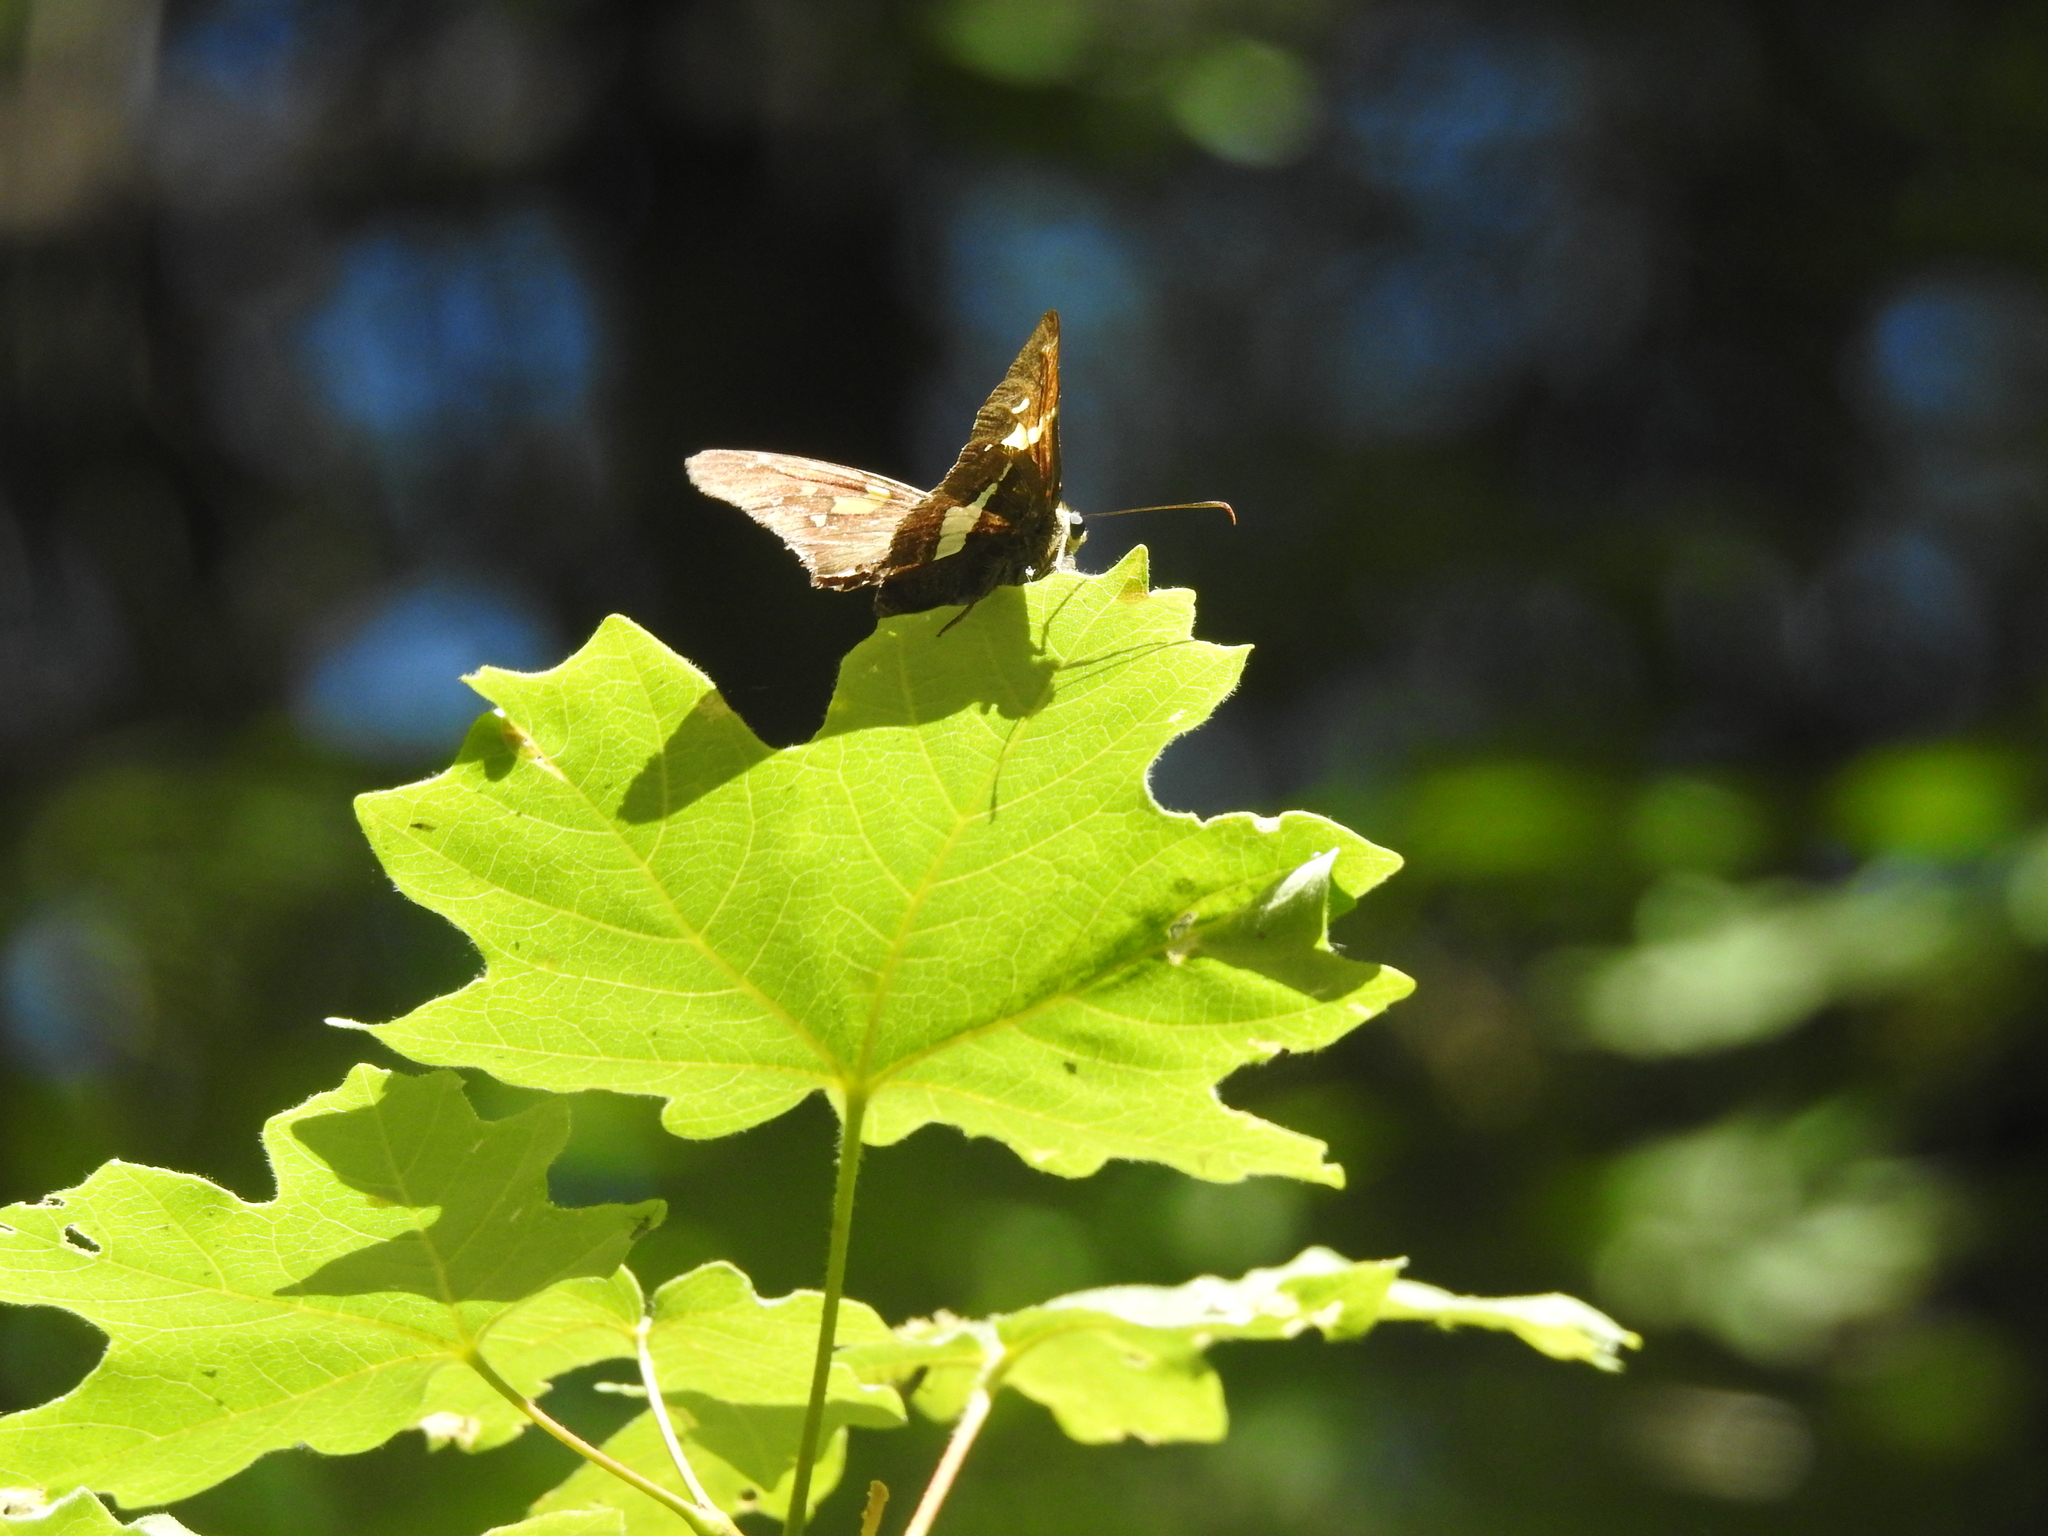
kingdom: Animalia
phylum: Arthropoda
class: Insecta
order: Lepidoptera
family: Hesperiidae
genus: Epargyreus
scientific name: Epargyreus clarus
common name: Silver-spotted skipper
